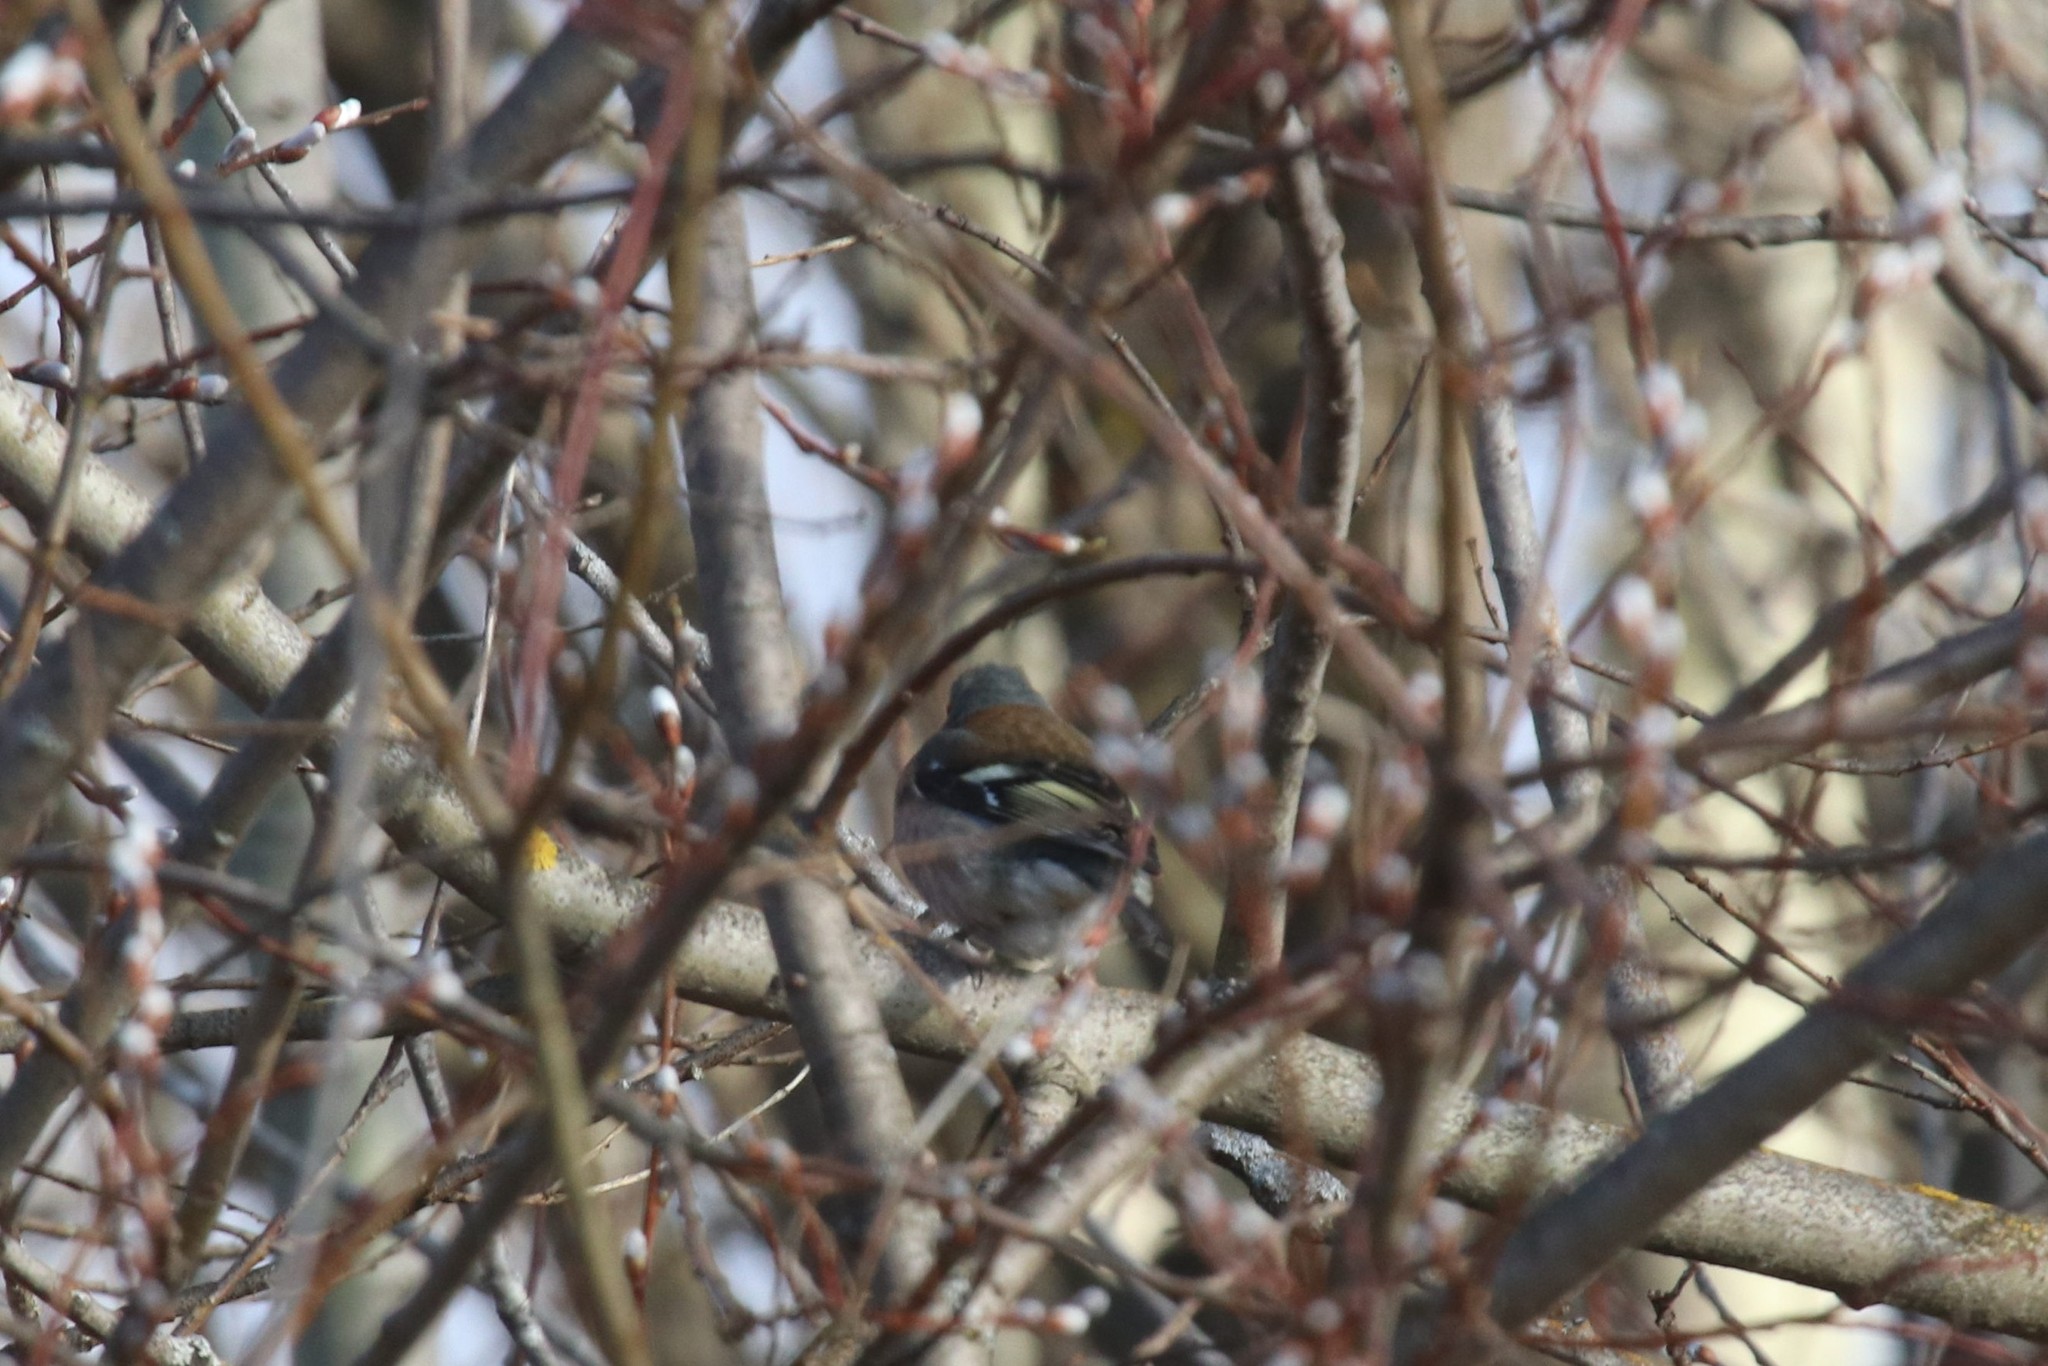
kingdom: Animalia
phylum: Chordata
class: Aves
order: Passeriformes
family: Fringillidae
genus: Fringilla
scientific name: Fringilla coelebs
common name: Common chaffinch
